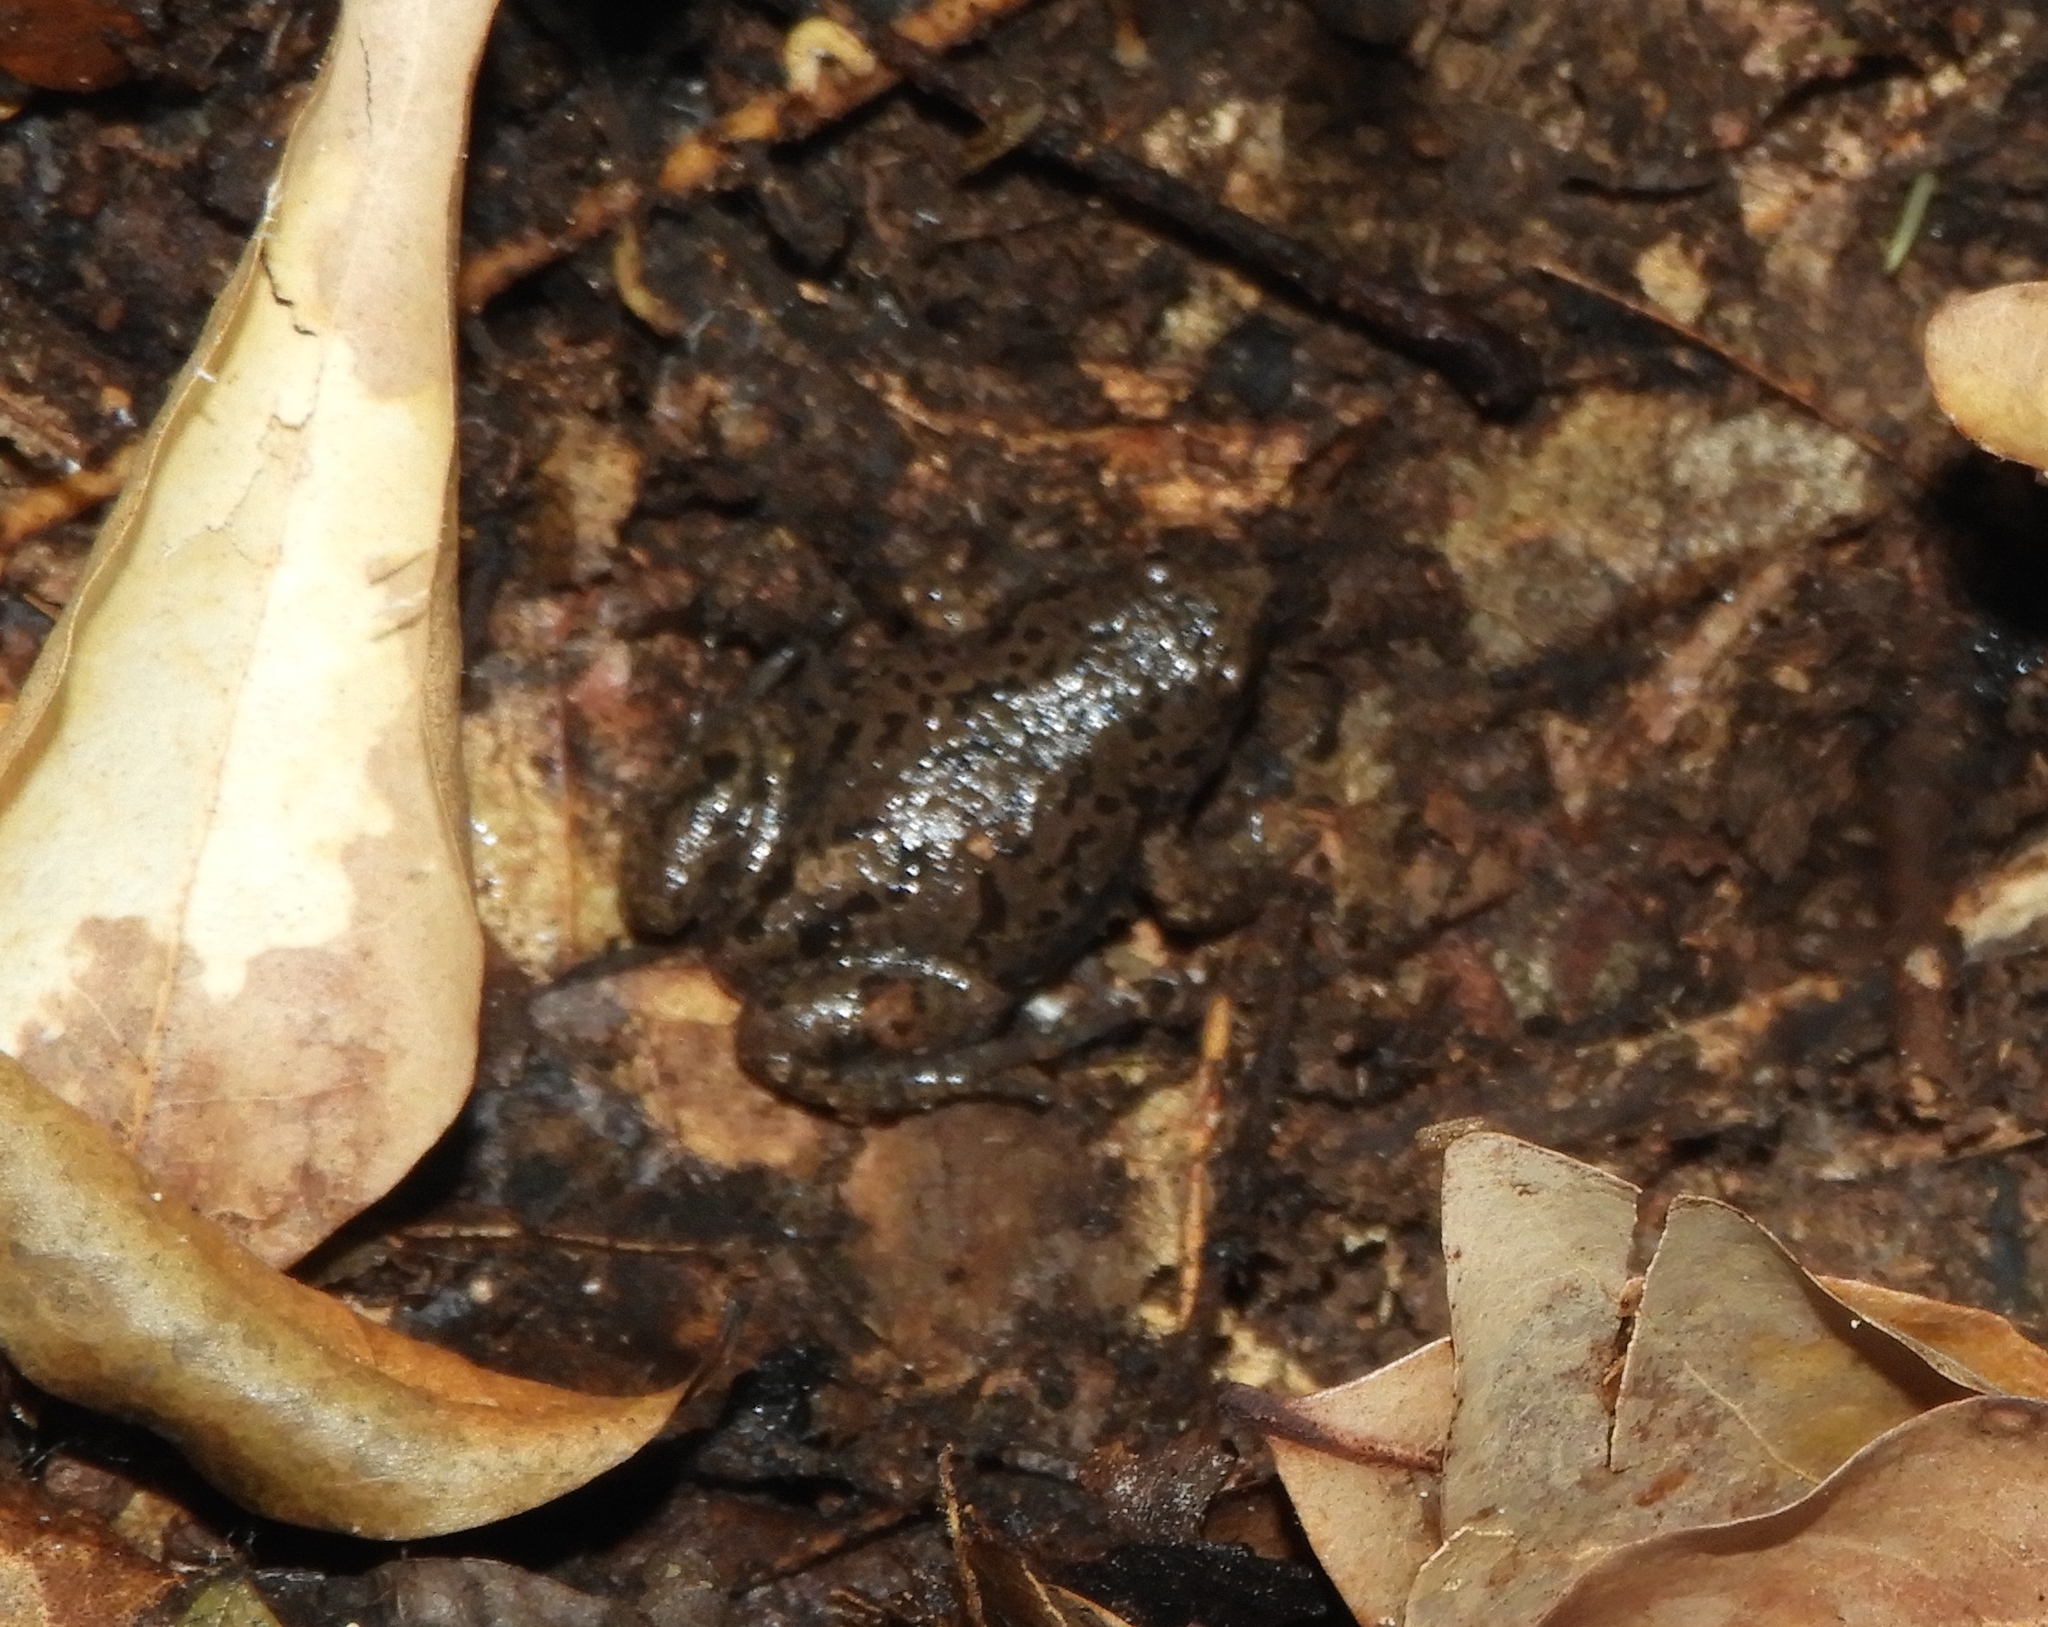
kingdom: Animalia
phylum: Chordata
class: Amphibia
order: Anura
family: Microhylidae
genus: Gastrophryne
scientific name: Gastrophryne mazatlanensis
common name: Sinaloan narrow-mouthed toad
